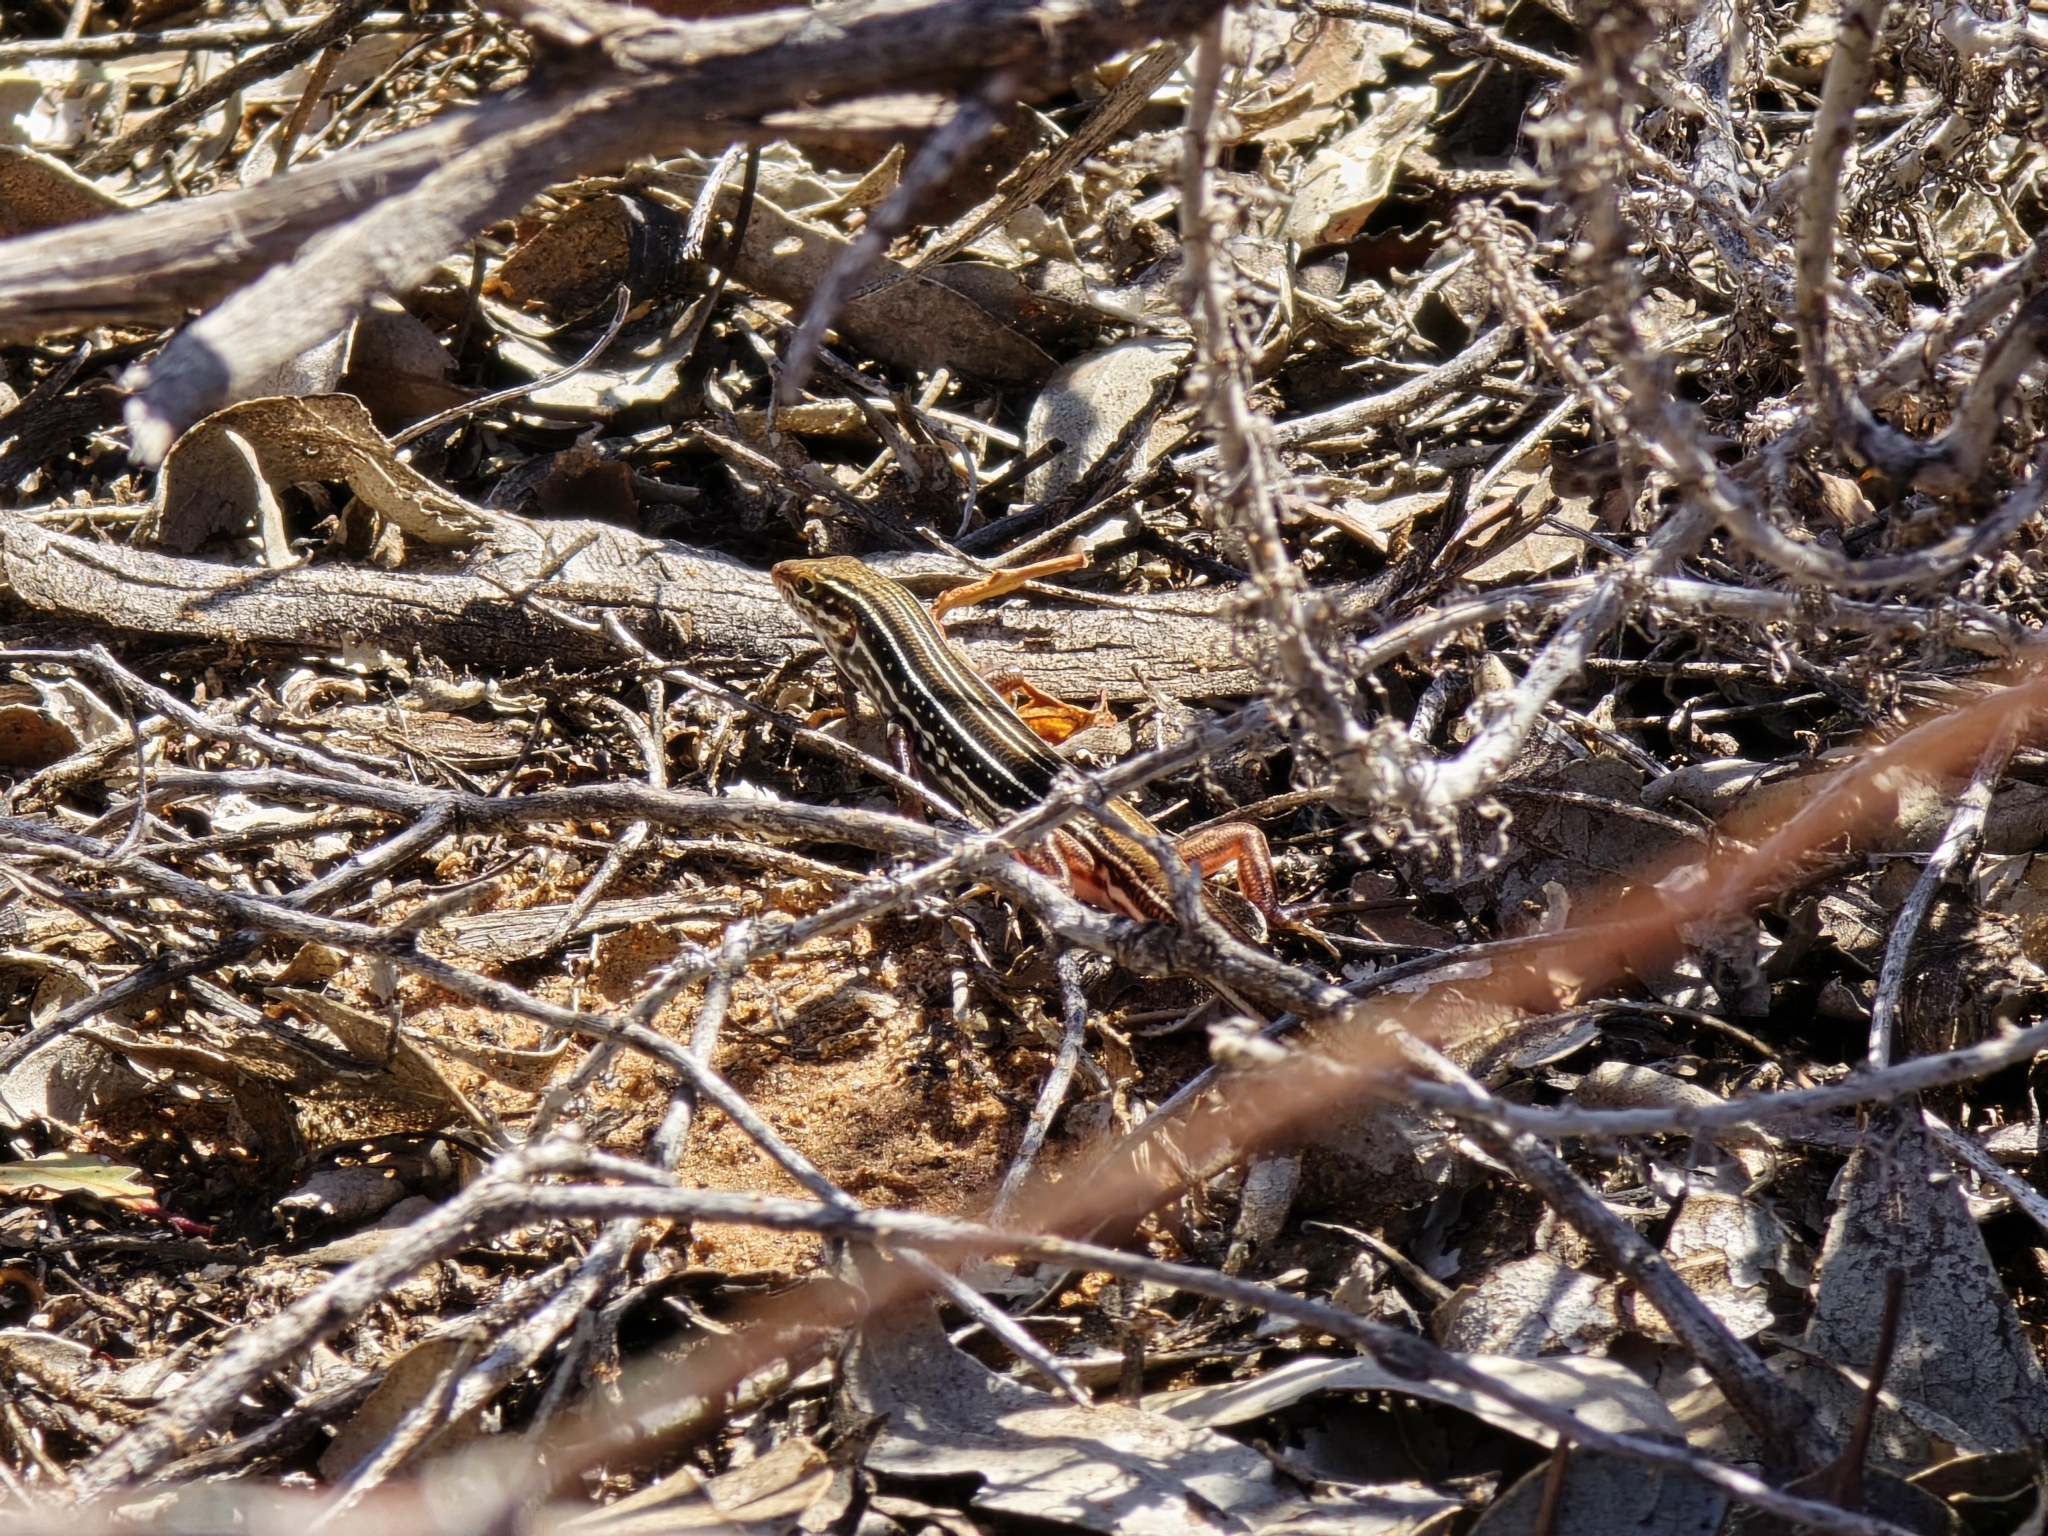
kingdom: Animalia
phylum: Chordata
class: Squamata
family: Scincidae
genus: Ctenotus
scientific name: Ctenotus regius
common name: Pale-rumped ctenotus
